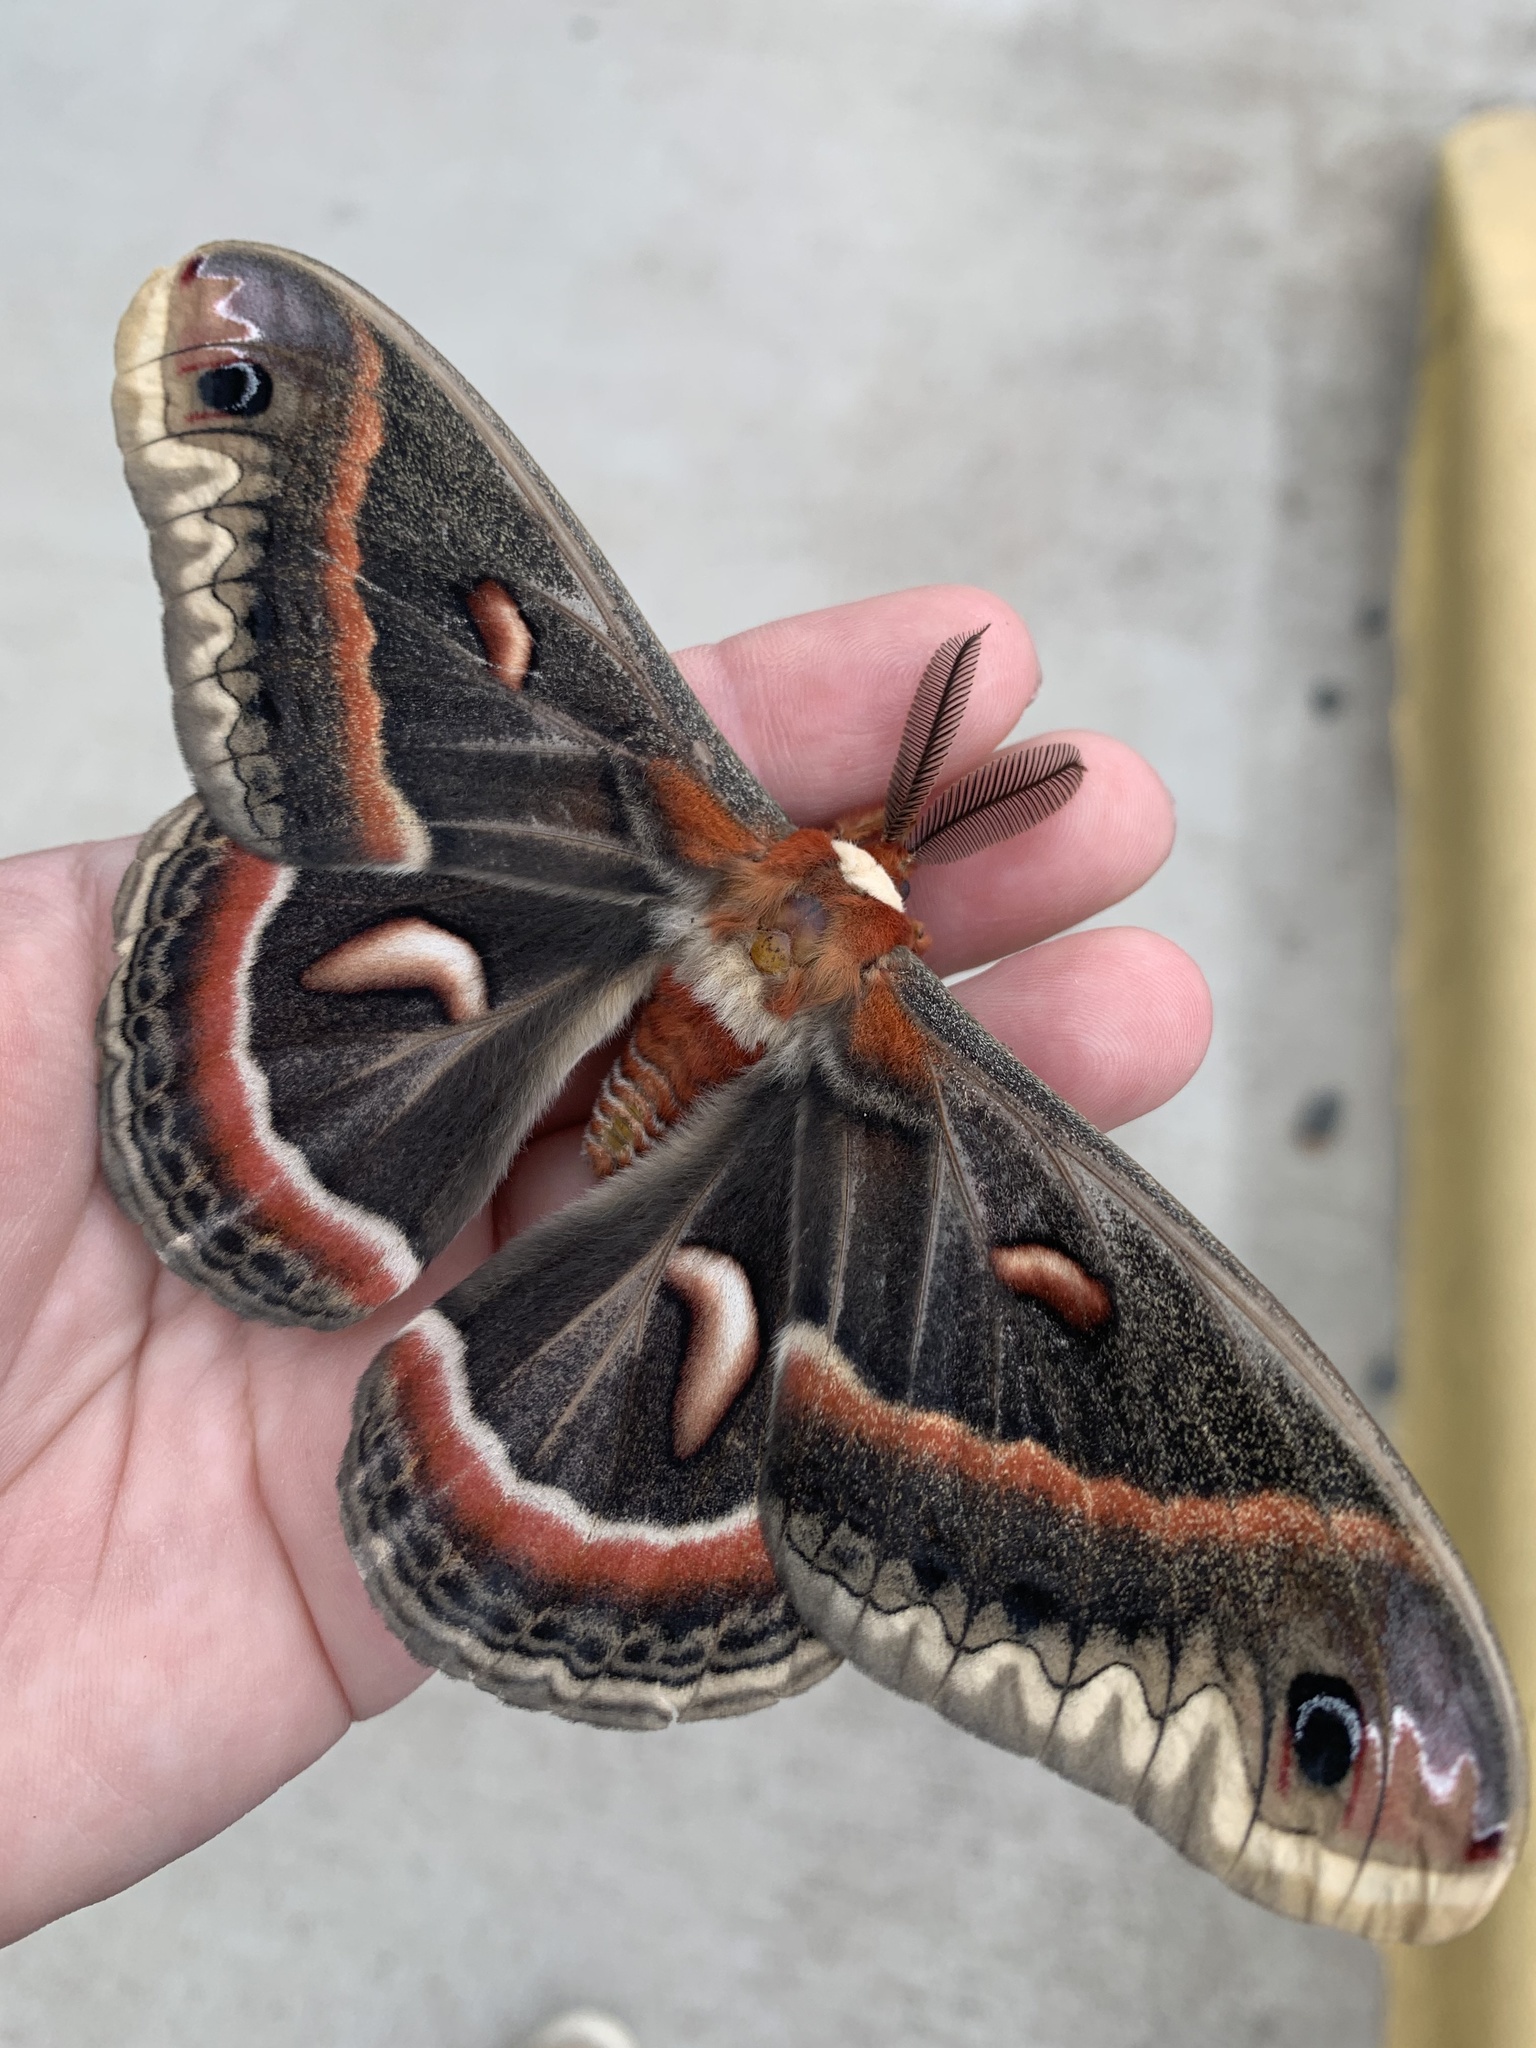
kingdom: Animalia
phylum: Arthropoda
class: Insecta
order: Lepidoptera
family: Saturniidae
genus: Hyalophora
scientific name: Hyalophora cecropia
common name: Cecropia silkmoth
